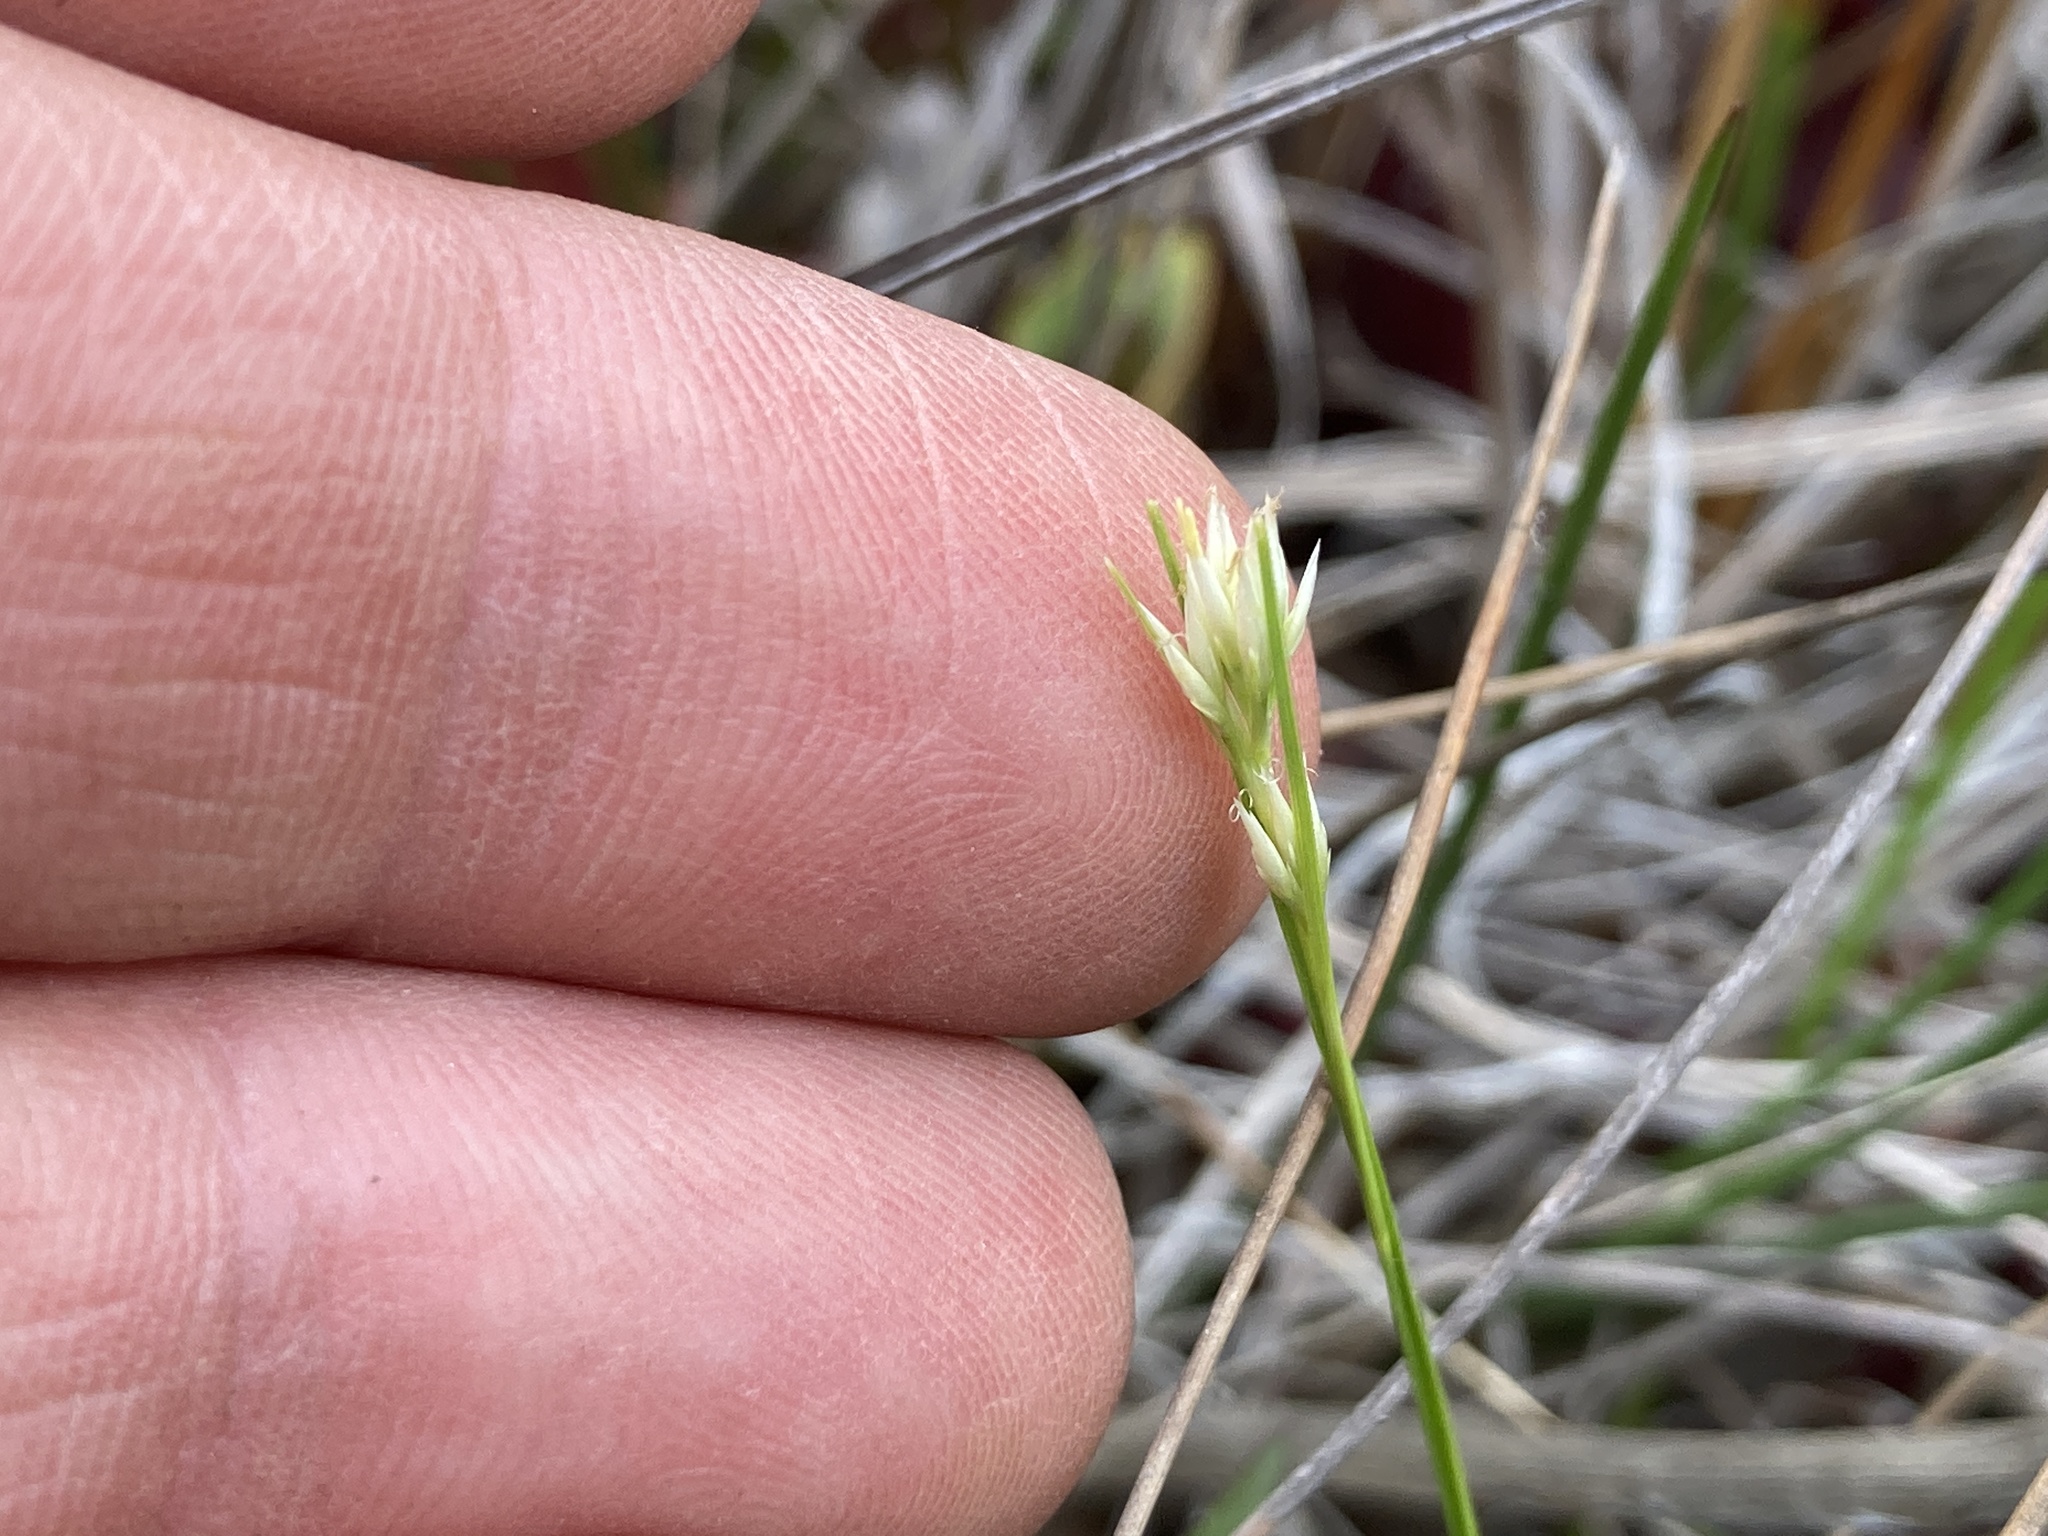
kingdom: Plantae
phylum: Tracheophyta
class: Liliopsida
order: Poales
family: Cyperaceae
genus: Rhynchospora
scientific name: Rhynchospora alba
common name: White beak-sedge
